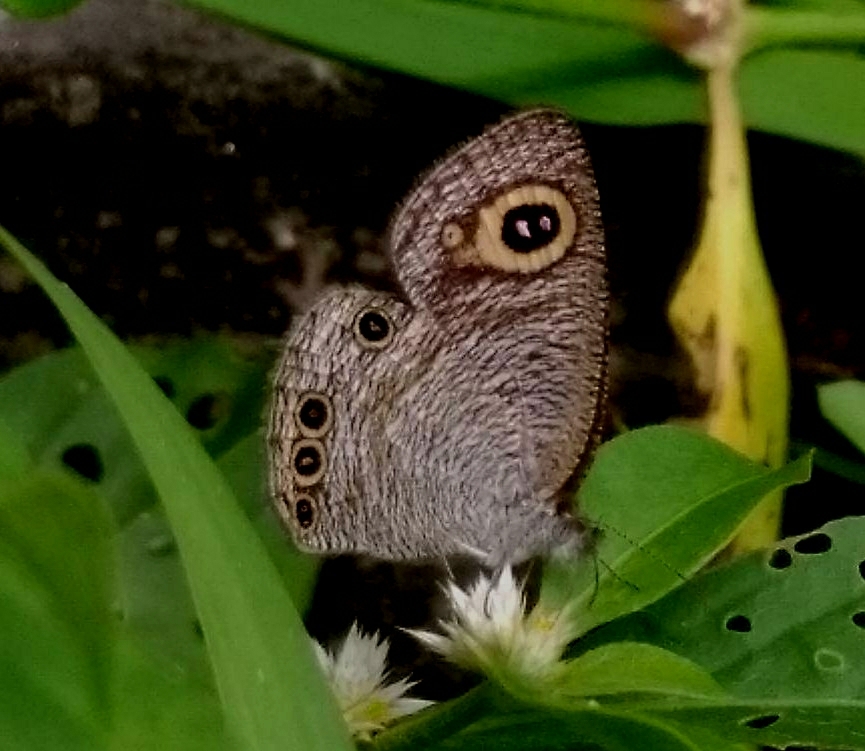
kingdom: Animalia
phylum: Arthropoda
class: Insecta
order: Lepidoptera
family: Nymphalidae
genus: Ypthima
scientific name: Ypthima huebneri
